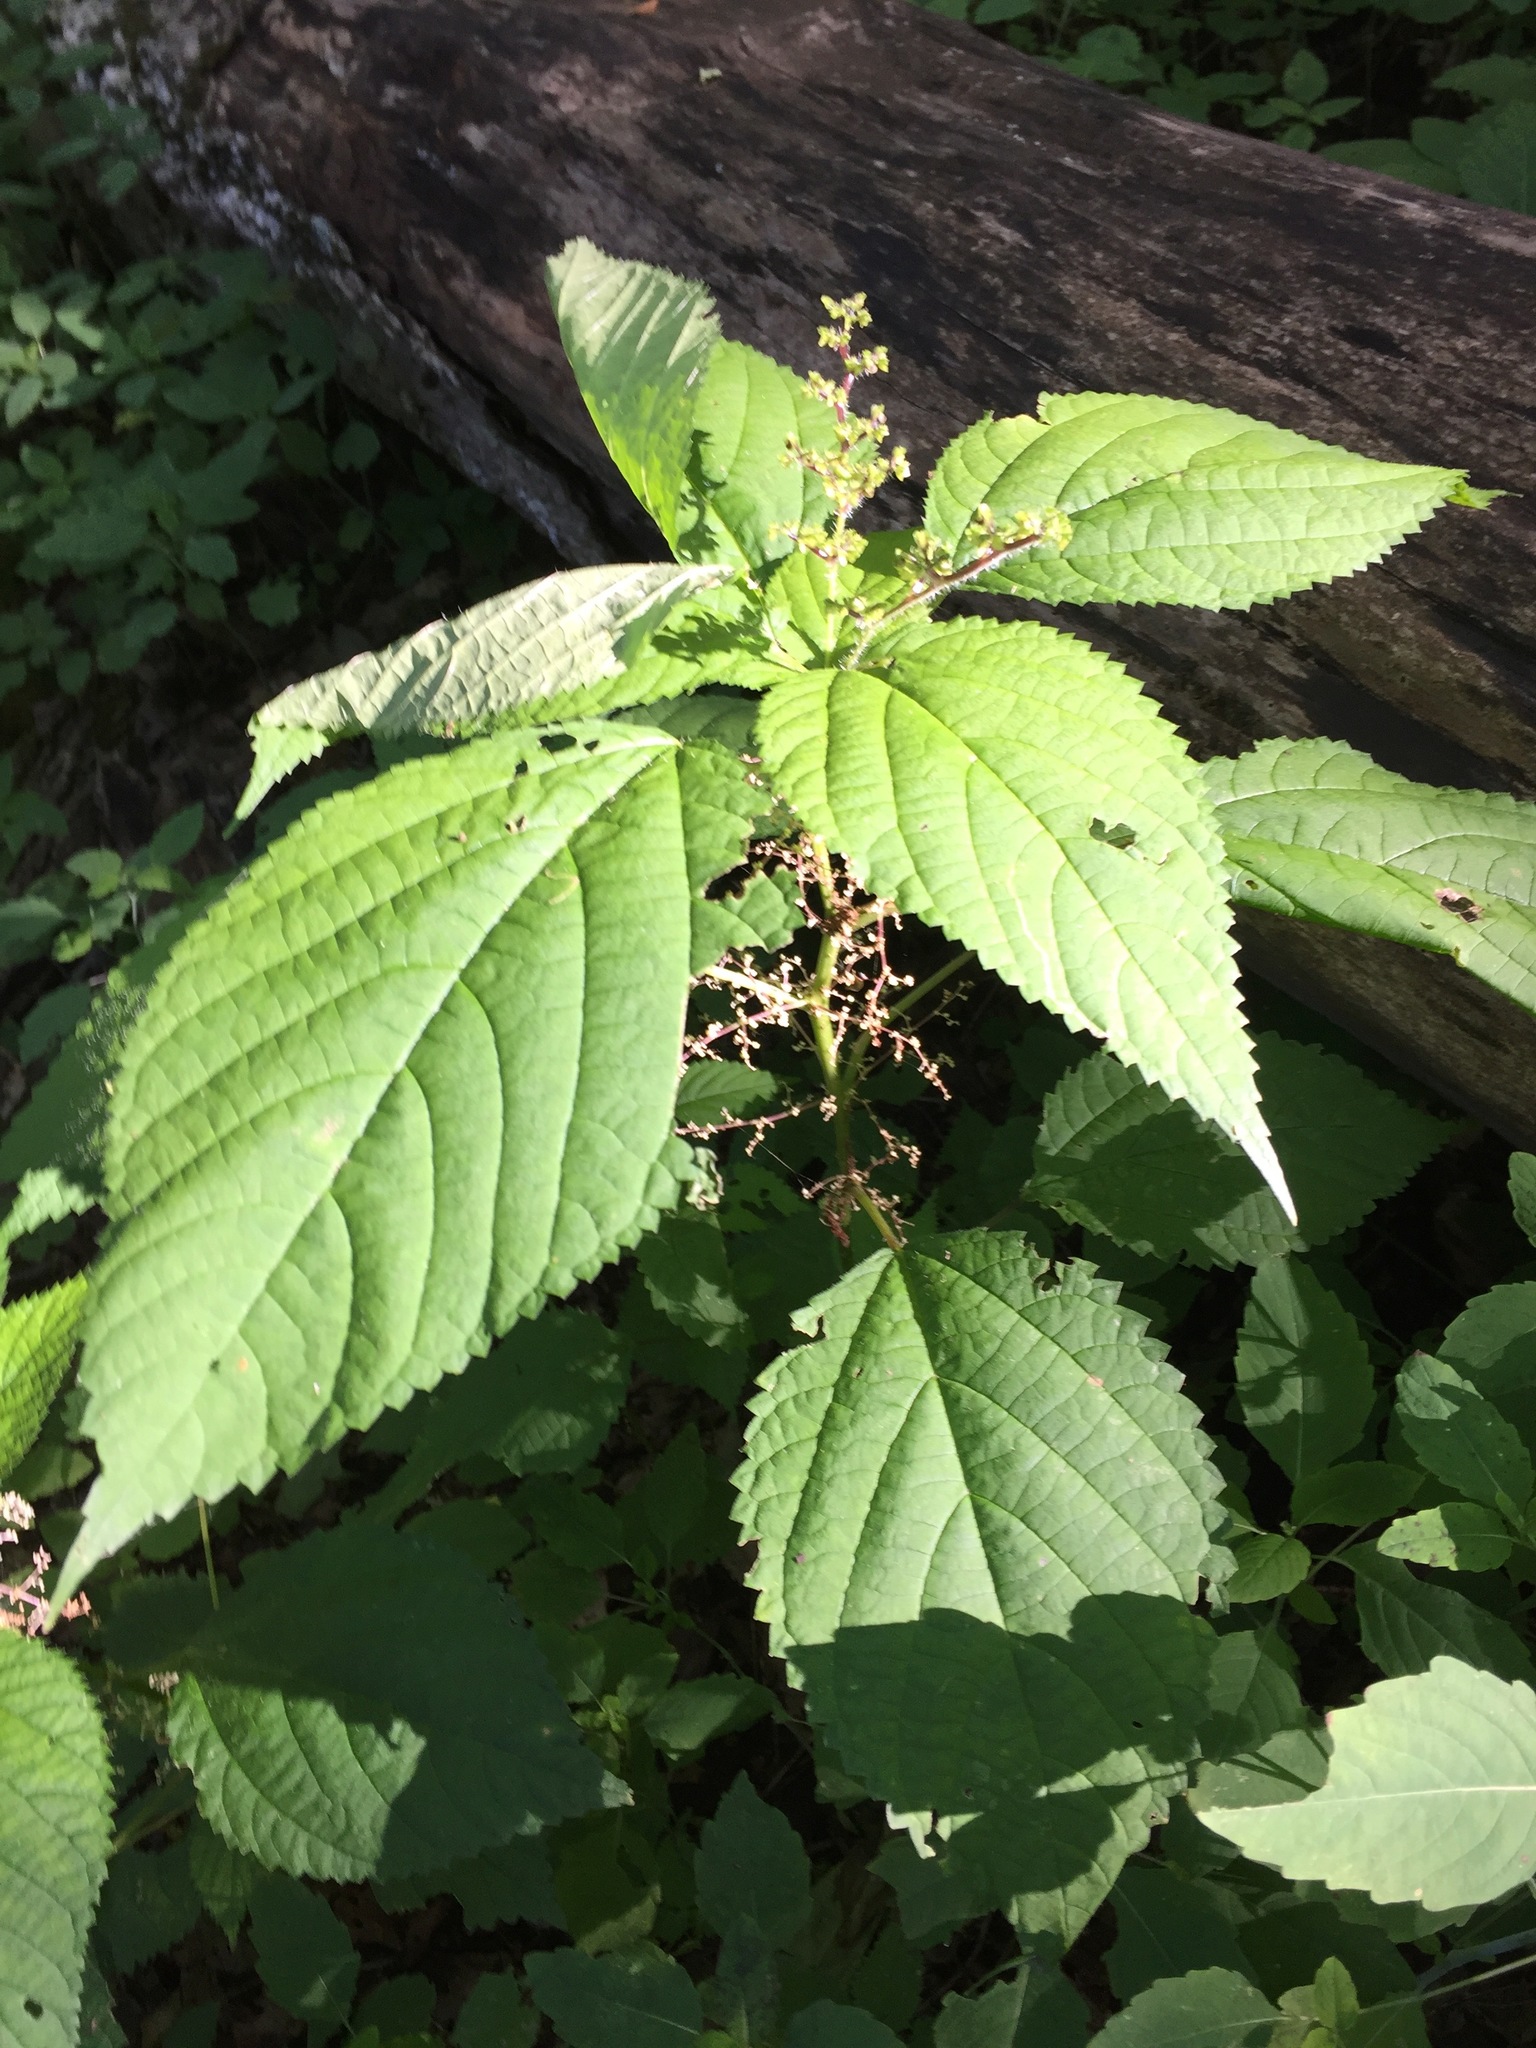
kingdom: Plantae
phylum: Tracheophyta
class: Magnoliopsida
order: Rosales
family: Urticaceae
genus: Laportea
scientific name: Laportea canadensis
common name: Canada nettle
